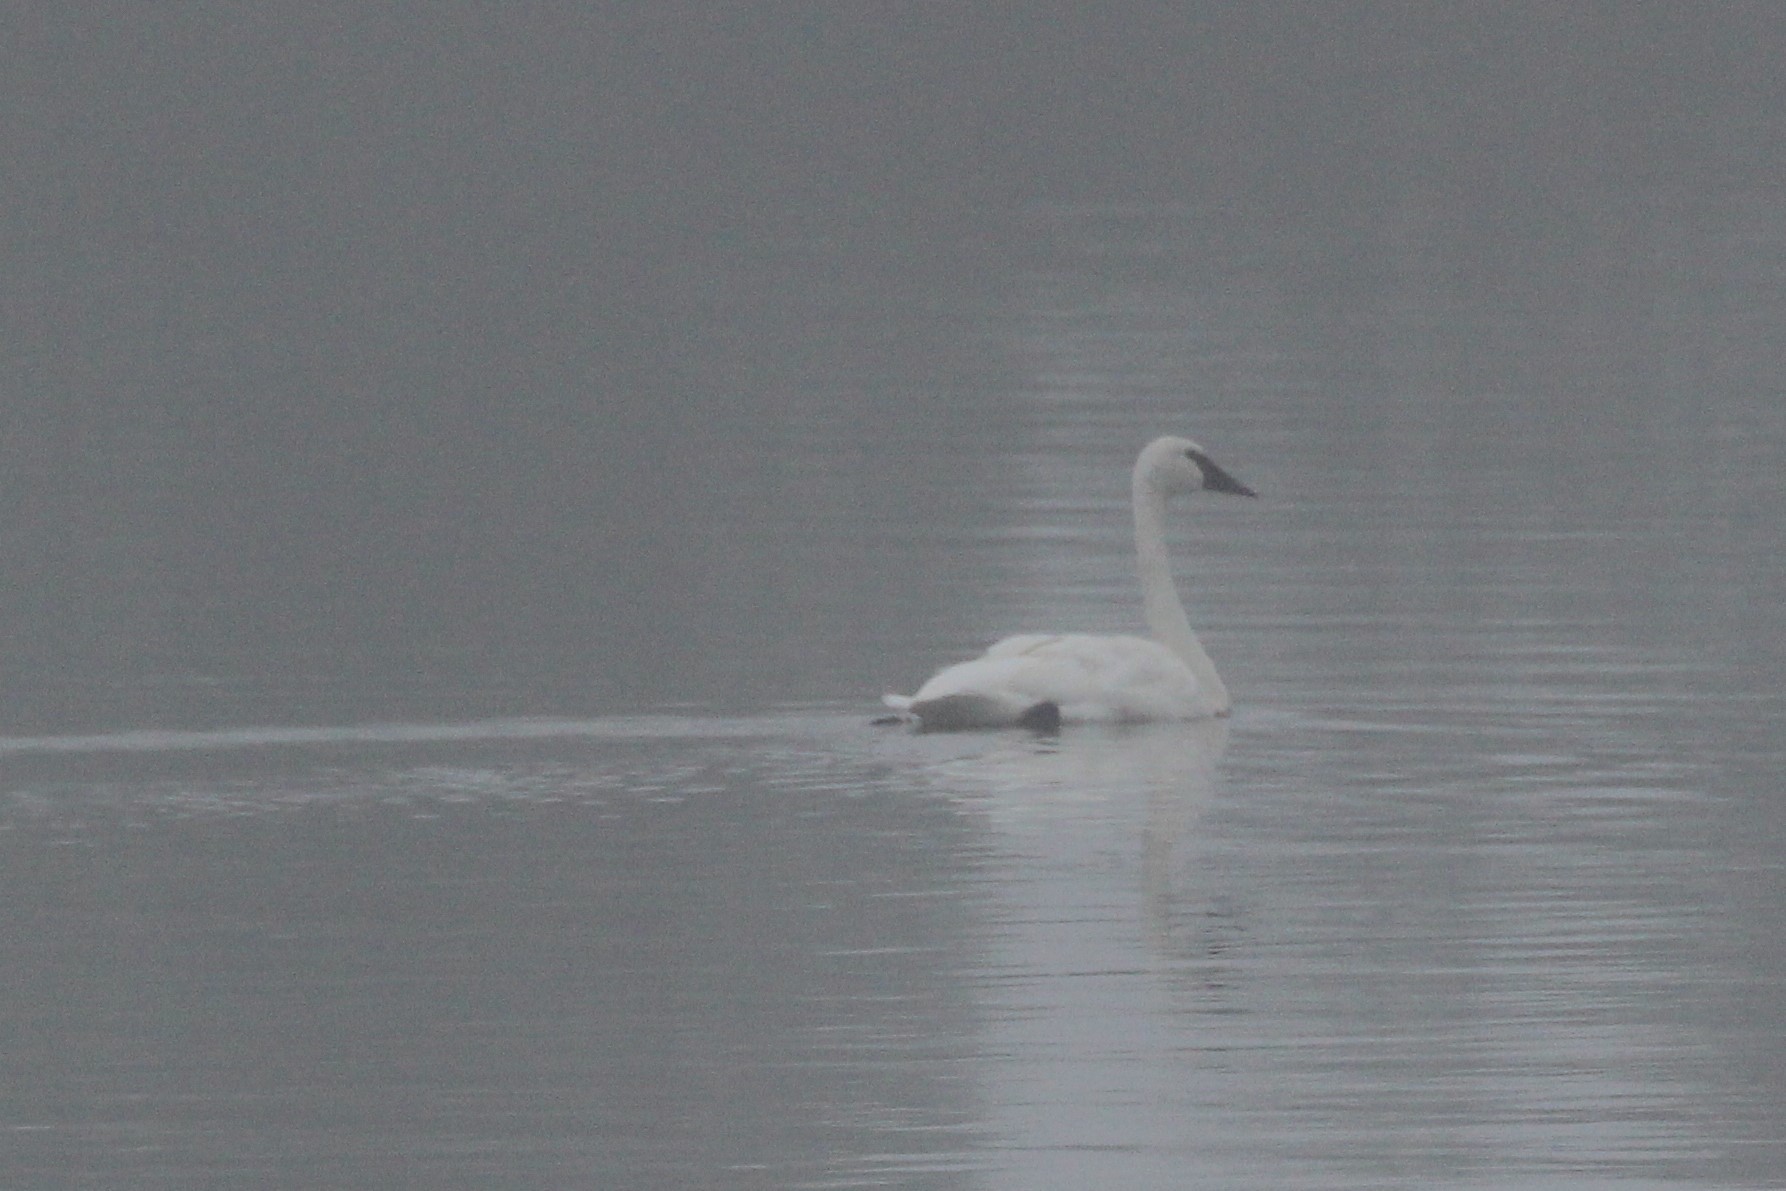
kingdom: Animalia
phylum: Chordata
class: Aves
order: Anseriformes
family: Anatidae
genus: Cygnus
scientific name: Cygnus buccinator
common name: Trumpeter swan
